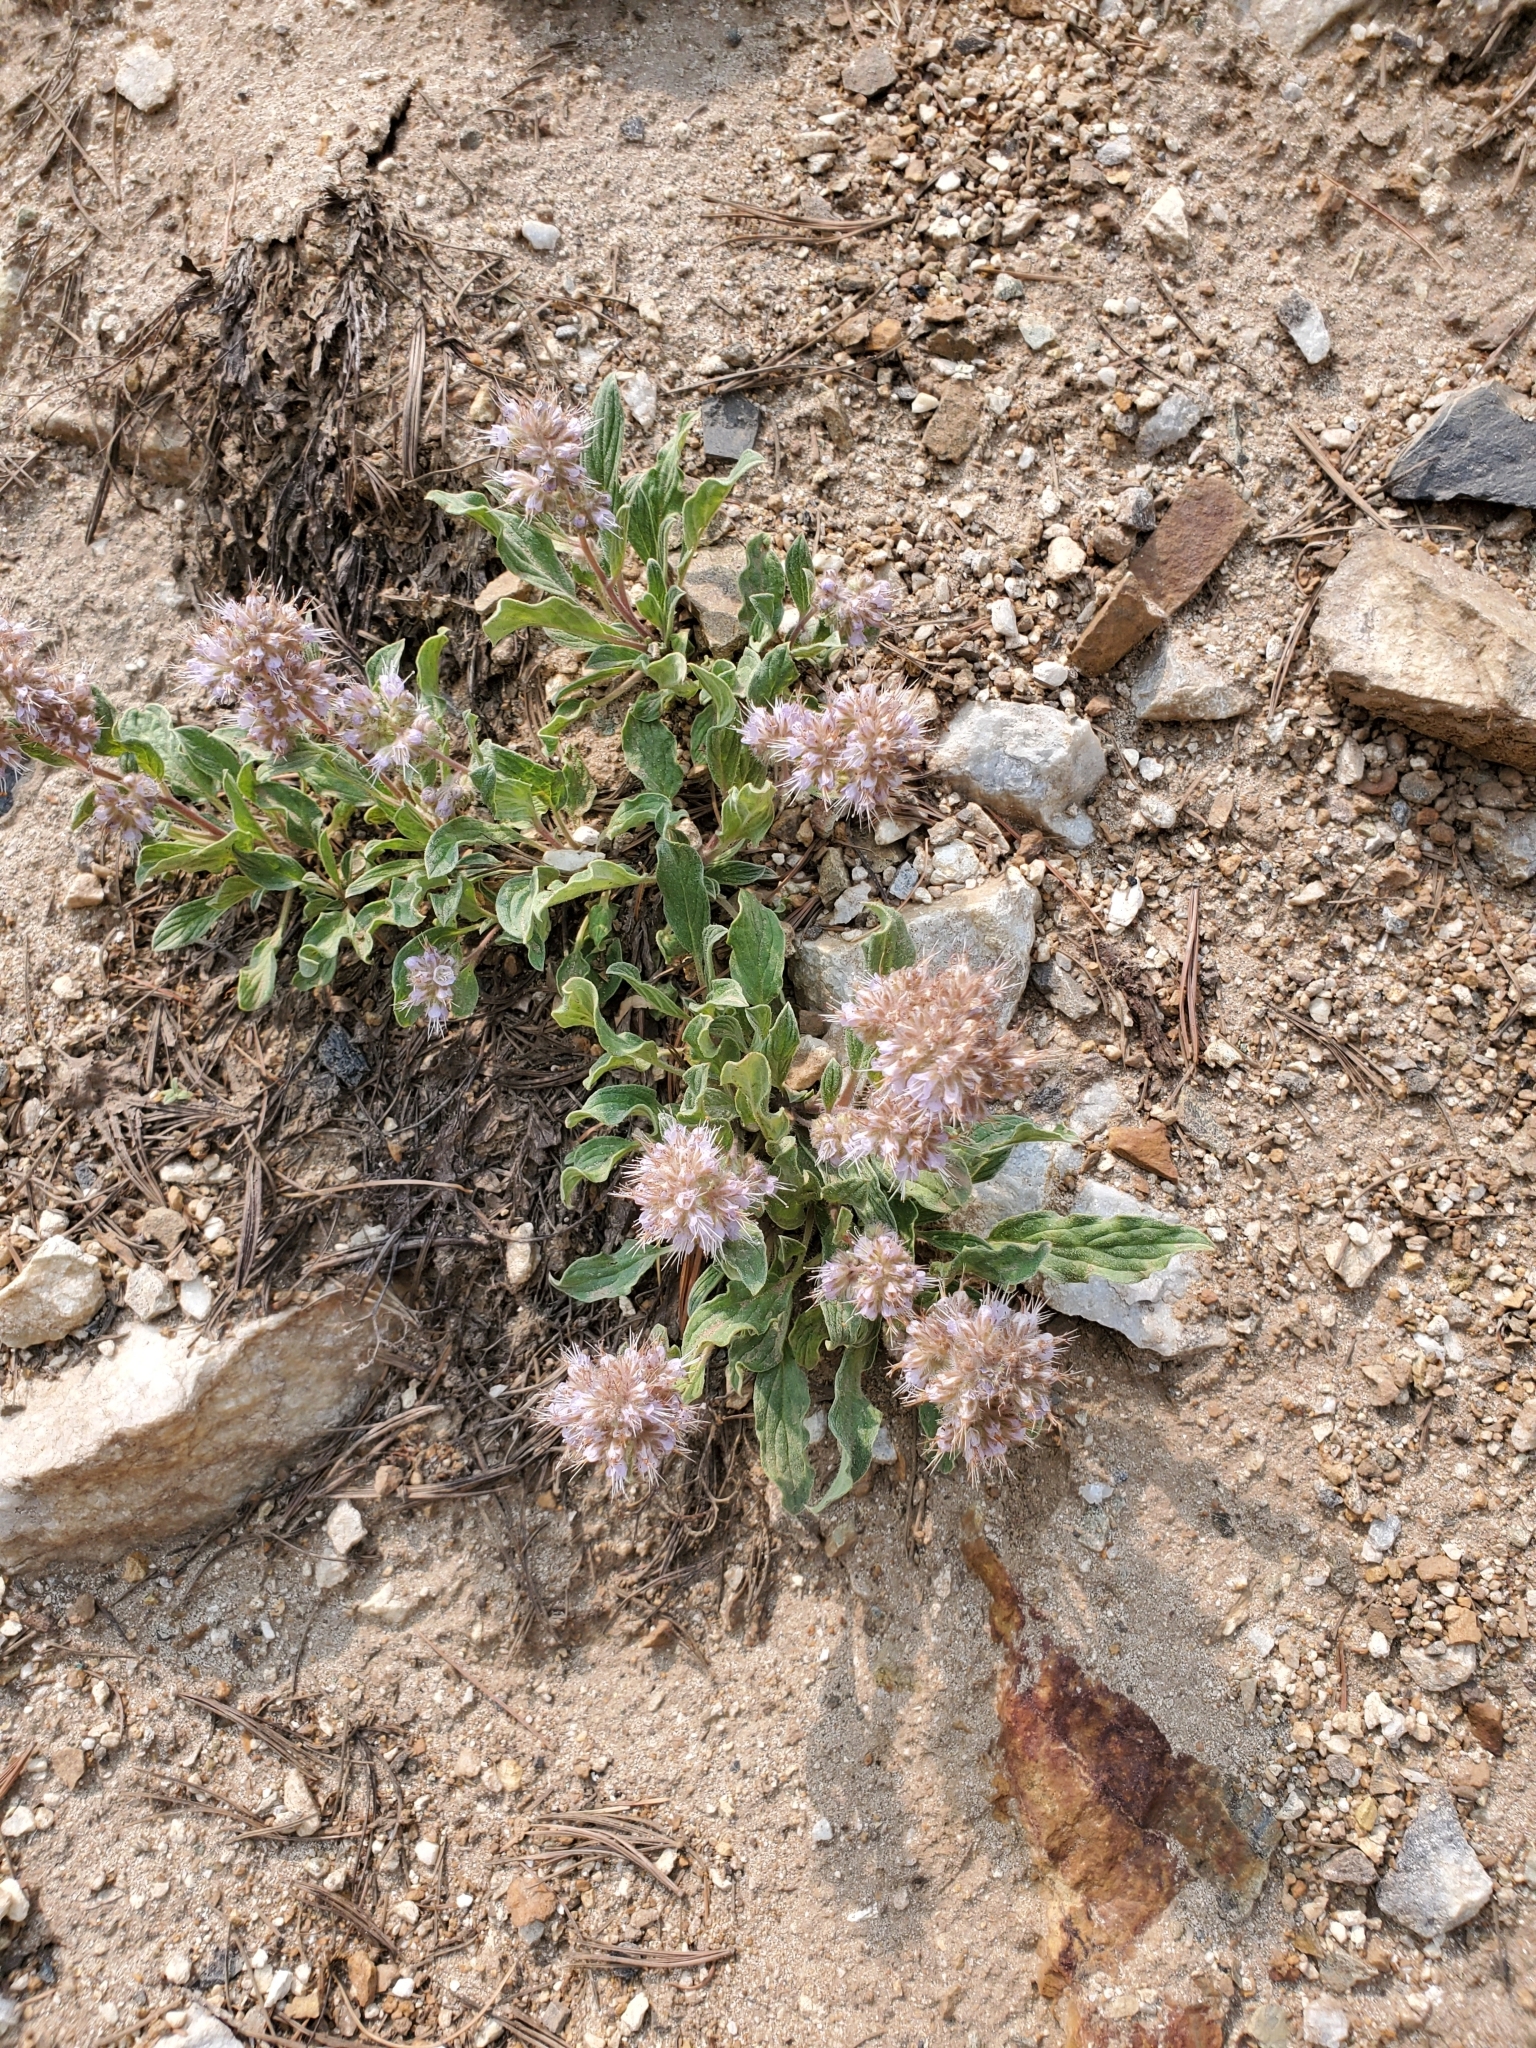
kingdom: Plantae
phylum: Tracheophyta
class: Magnoliopsida
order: Boraginales
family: Hydrophyllaceae
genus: Phacelia
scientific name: Phacelia hastata
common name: Silver-leaved phacelia
